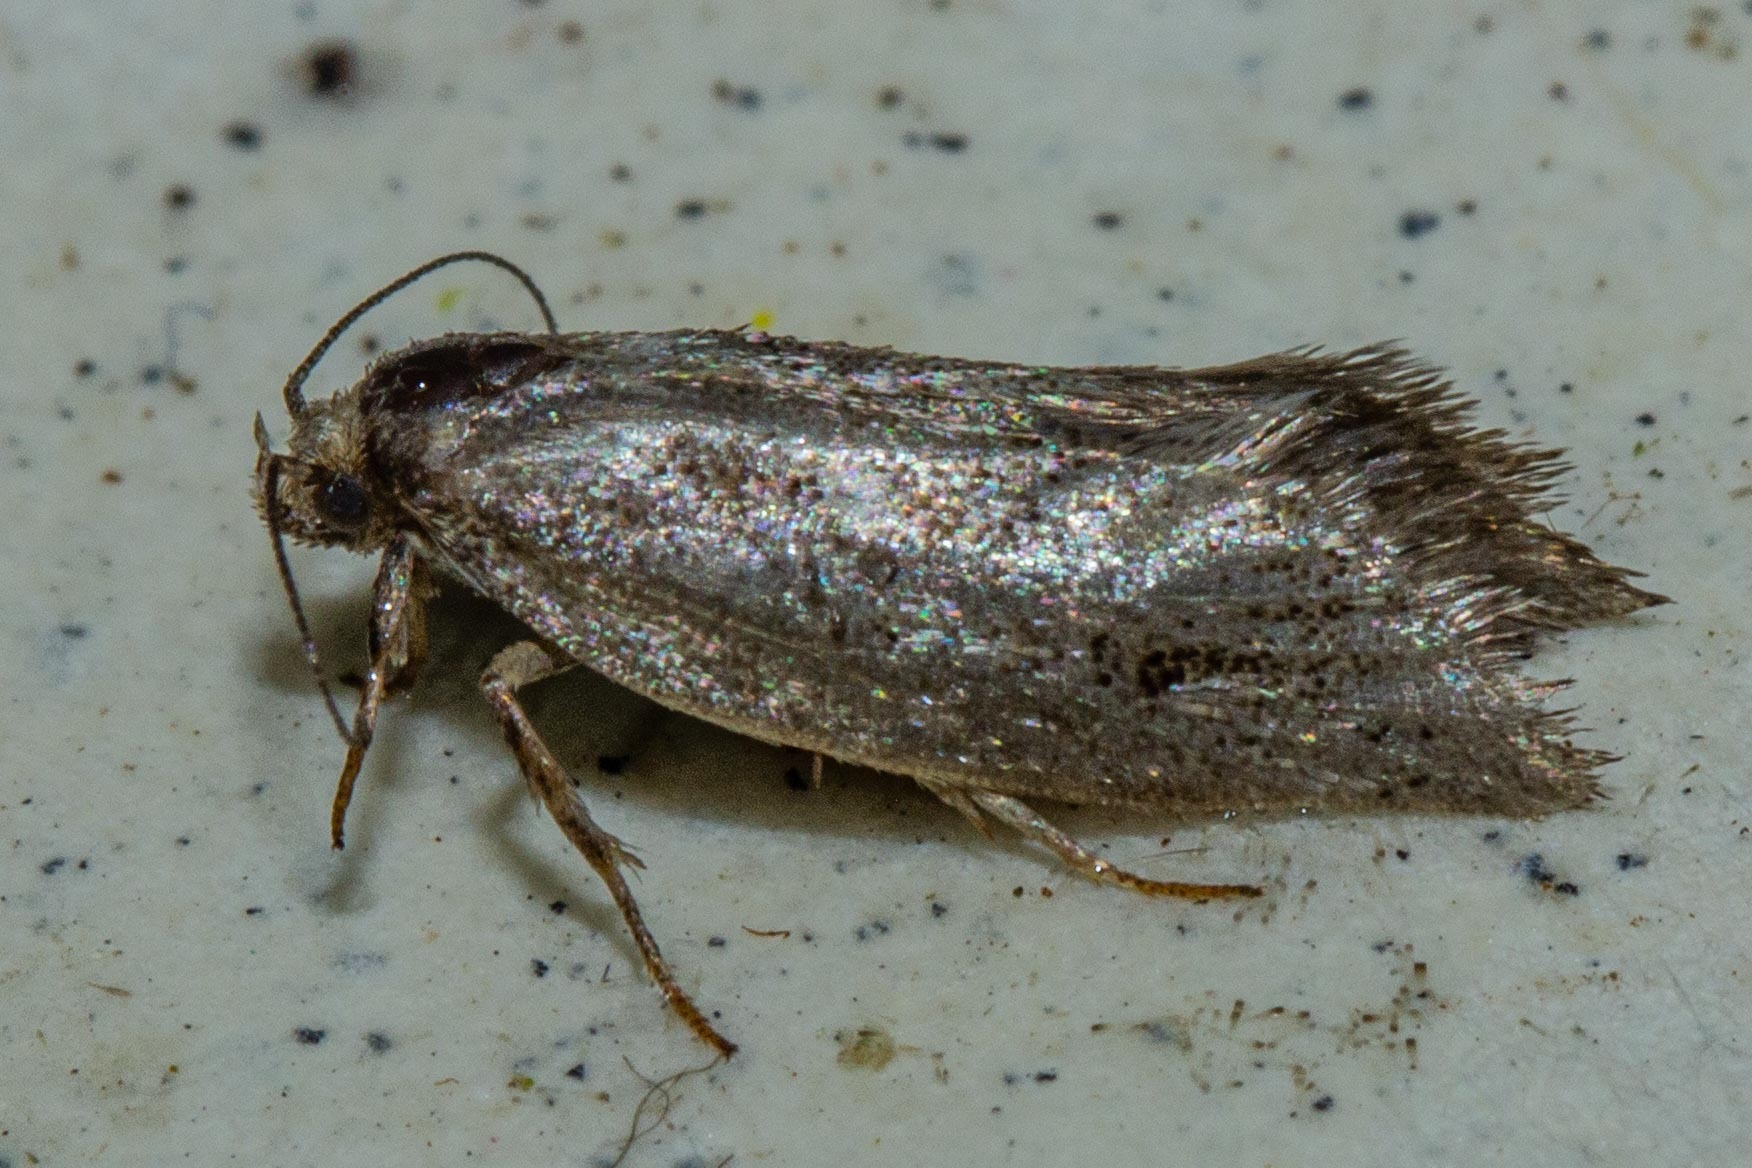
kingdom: Animalia
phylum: Arthropoda
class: Insecta
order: Lepidoptera
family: Oecophoridae
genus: Prepalla
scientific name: Prepalla
